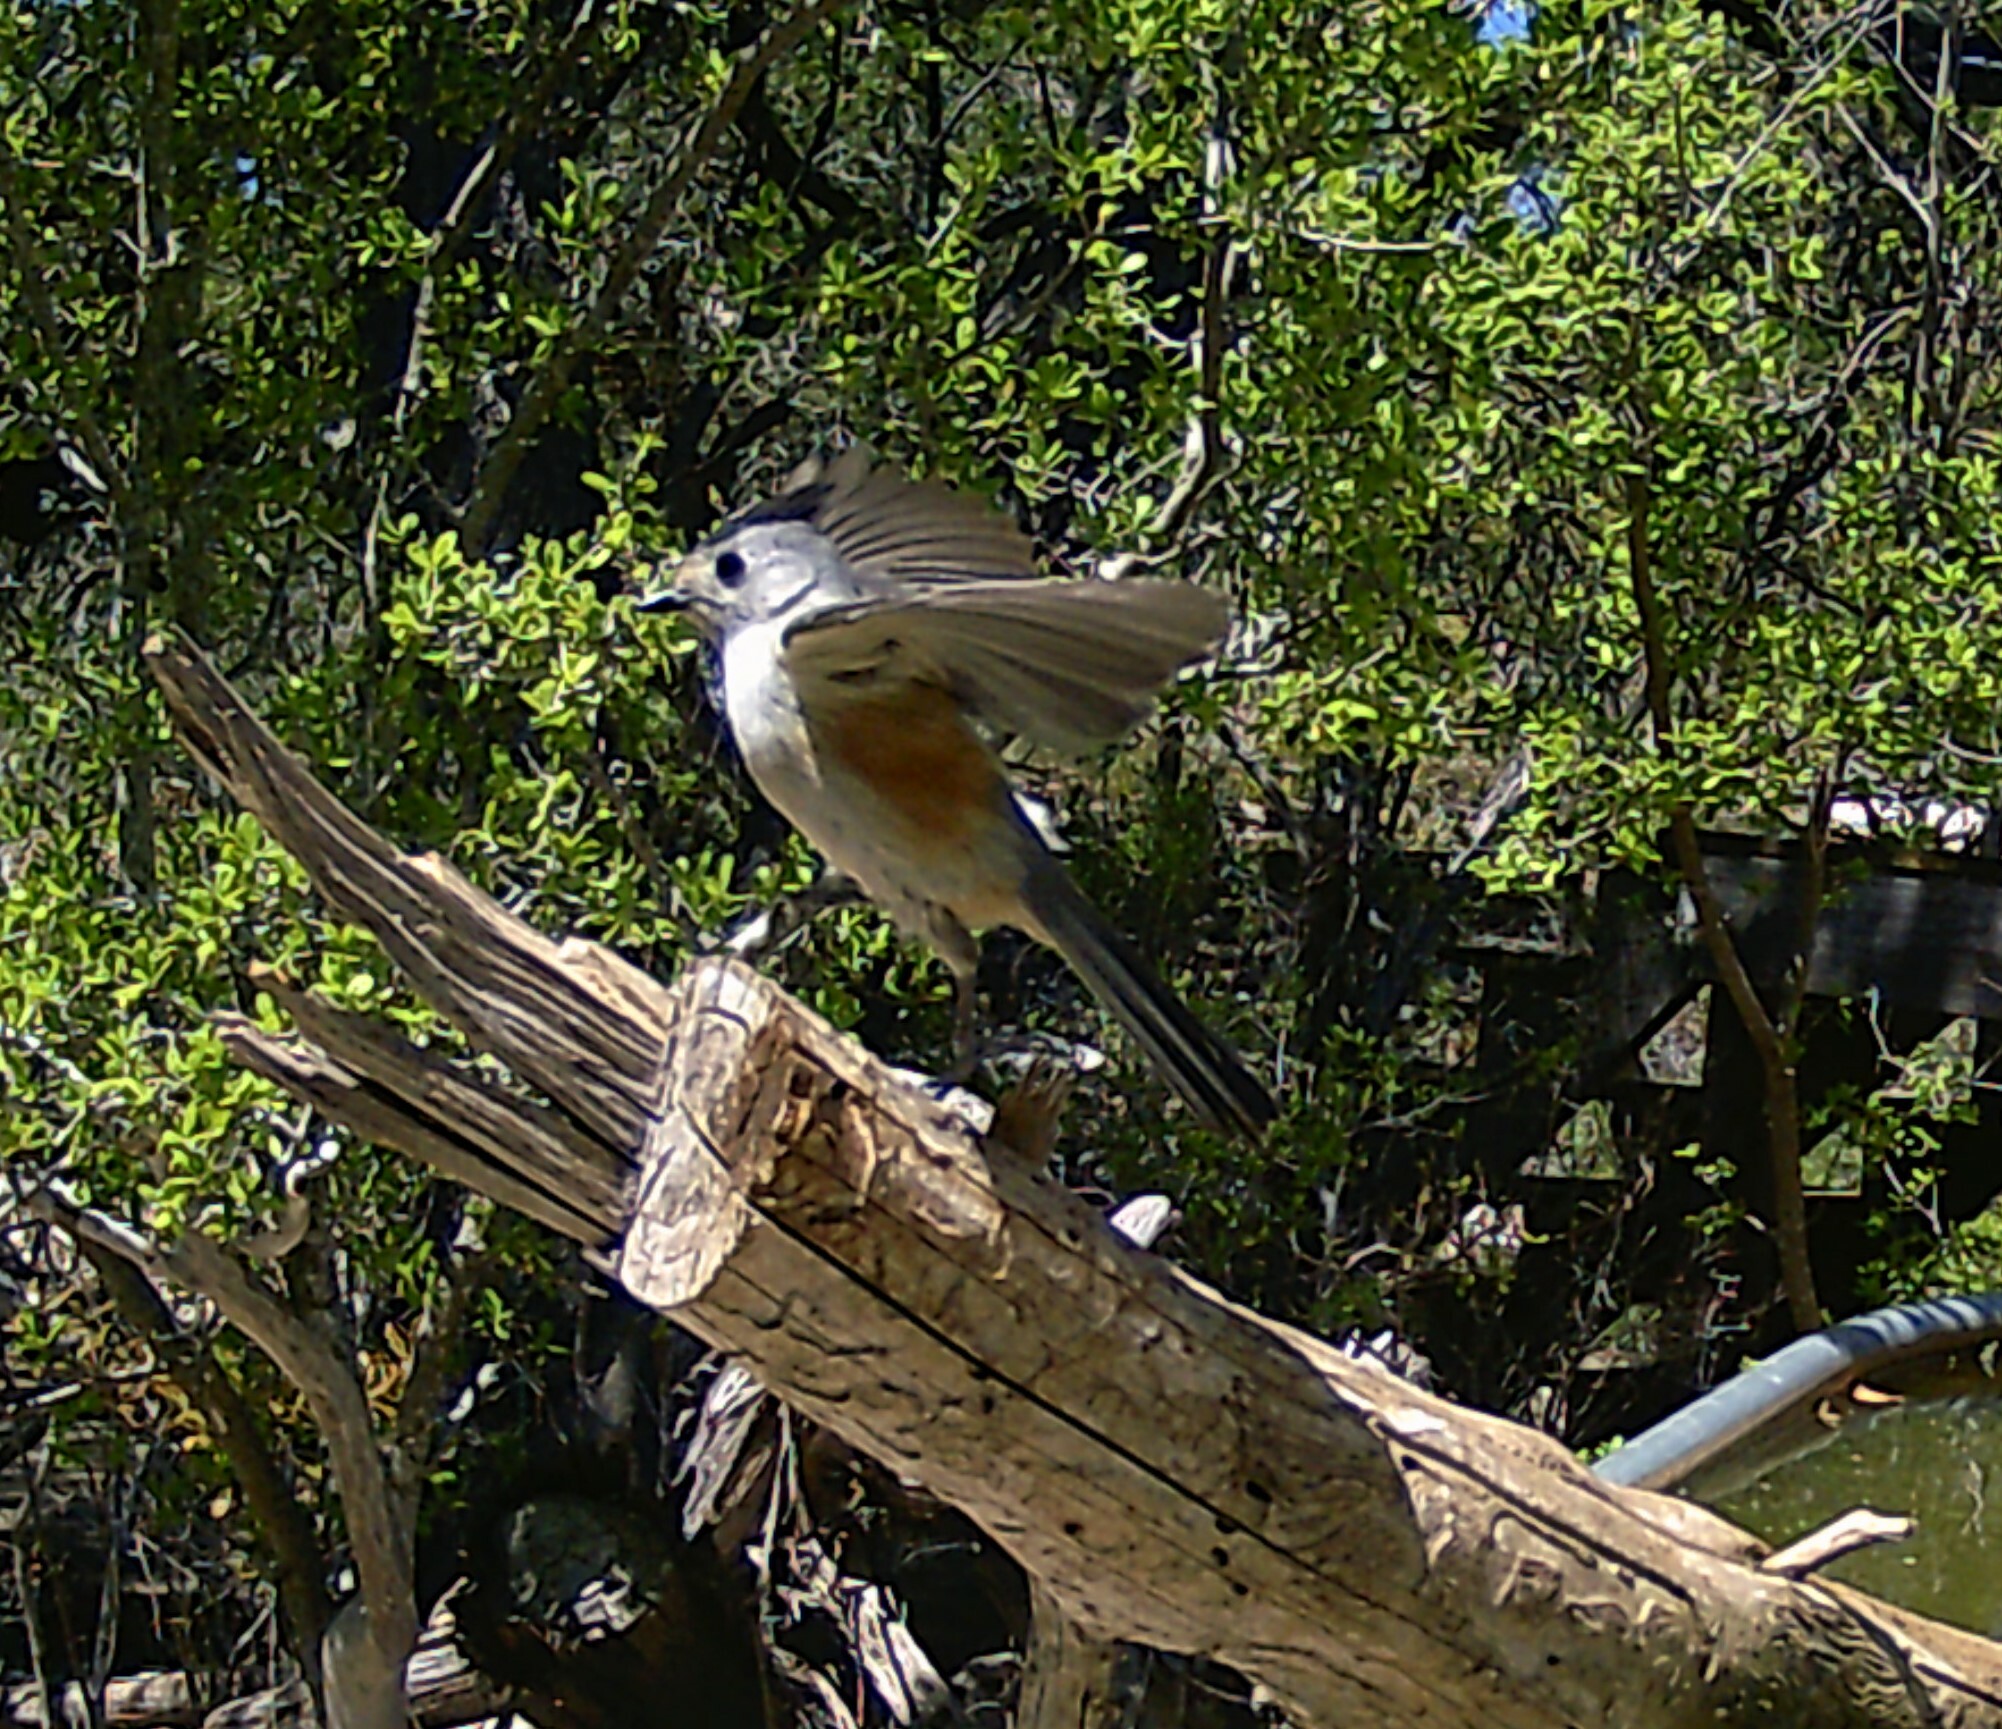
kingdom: Animalia
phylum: Chordata
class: Aves
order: Passeriformes
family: Paridae
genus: Baeolophus
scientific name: Baeolophus atricristatus
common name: Black-crested titmouse
